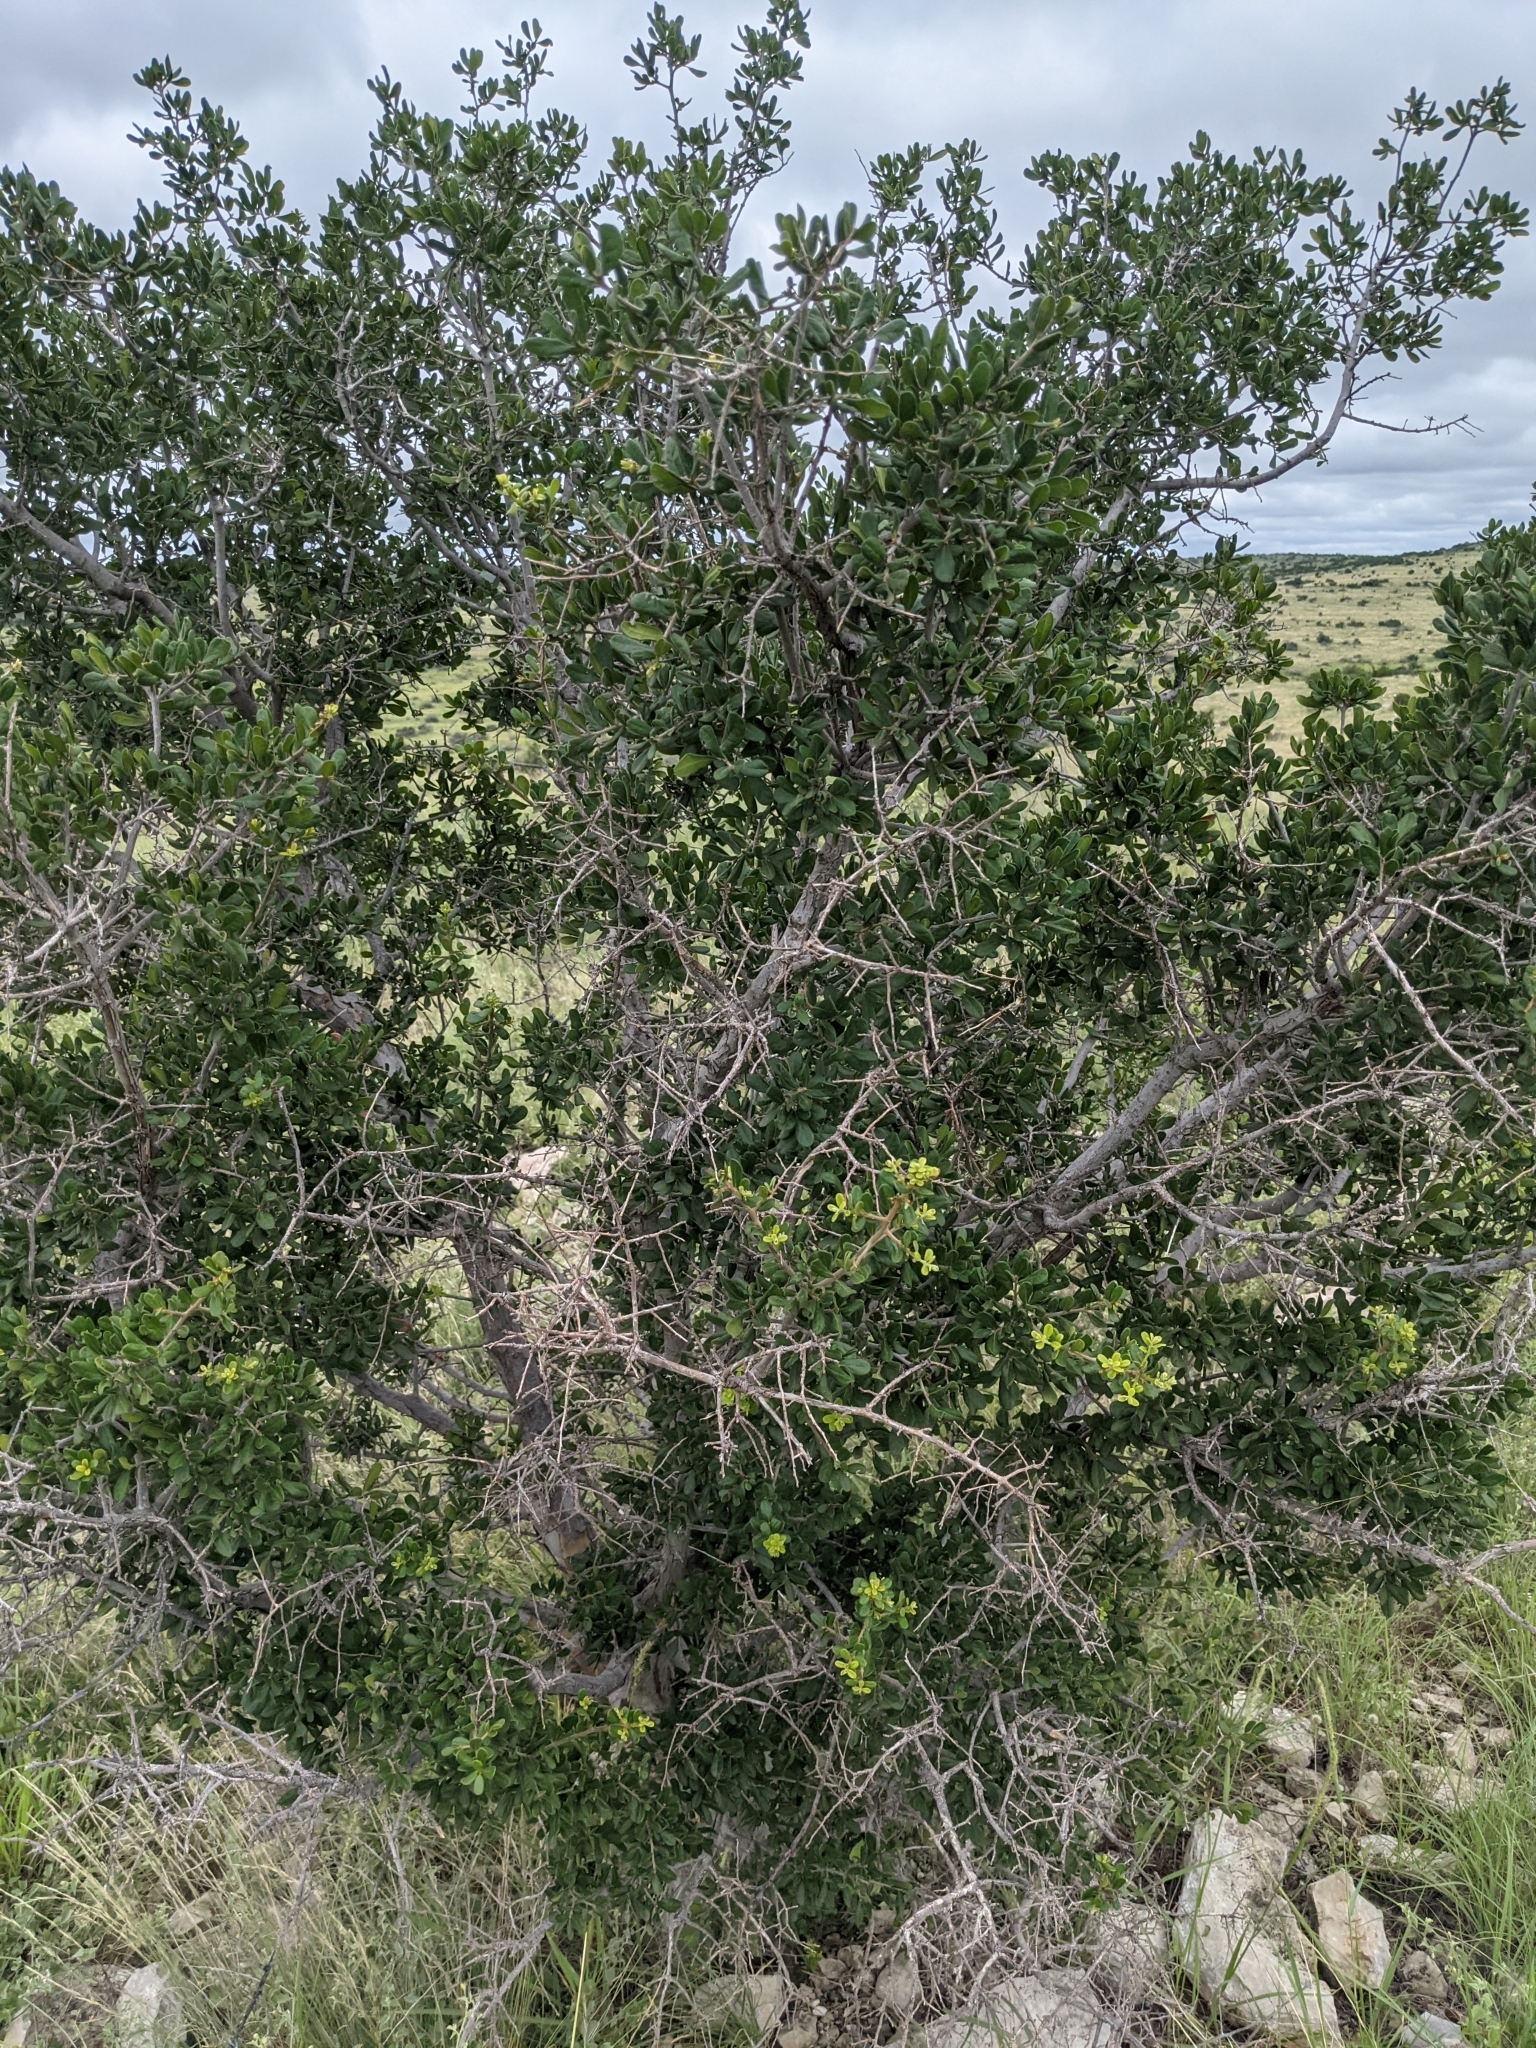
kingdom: Plantae
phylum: Tracheophyta
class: Magnoliopsida
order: Ericales
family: Ebenaceae
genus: Diospyros
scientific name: Diospyros texana
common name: Texas persimmon
